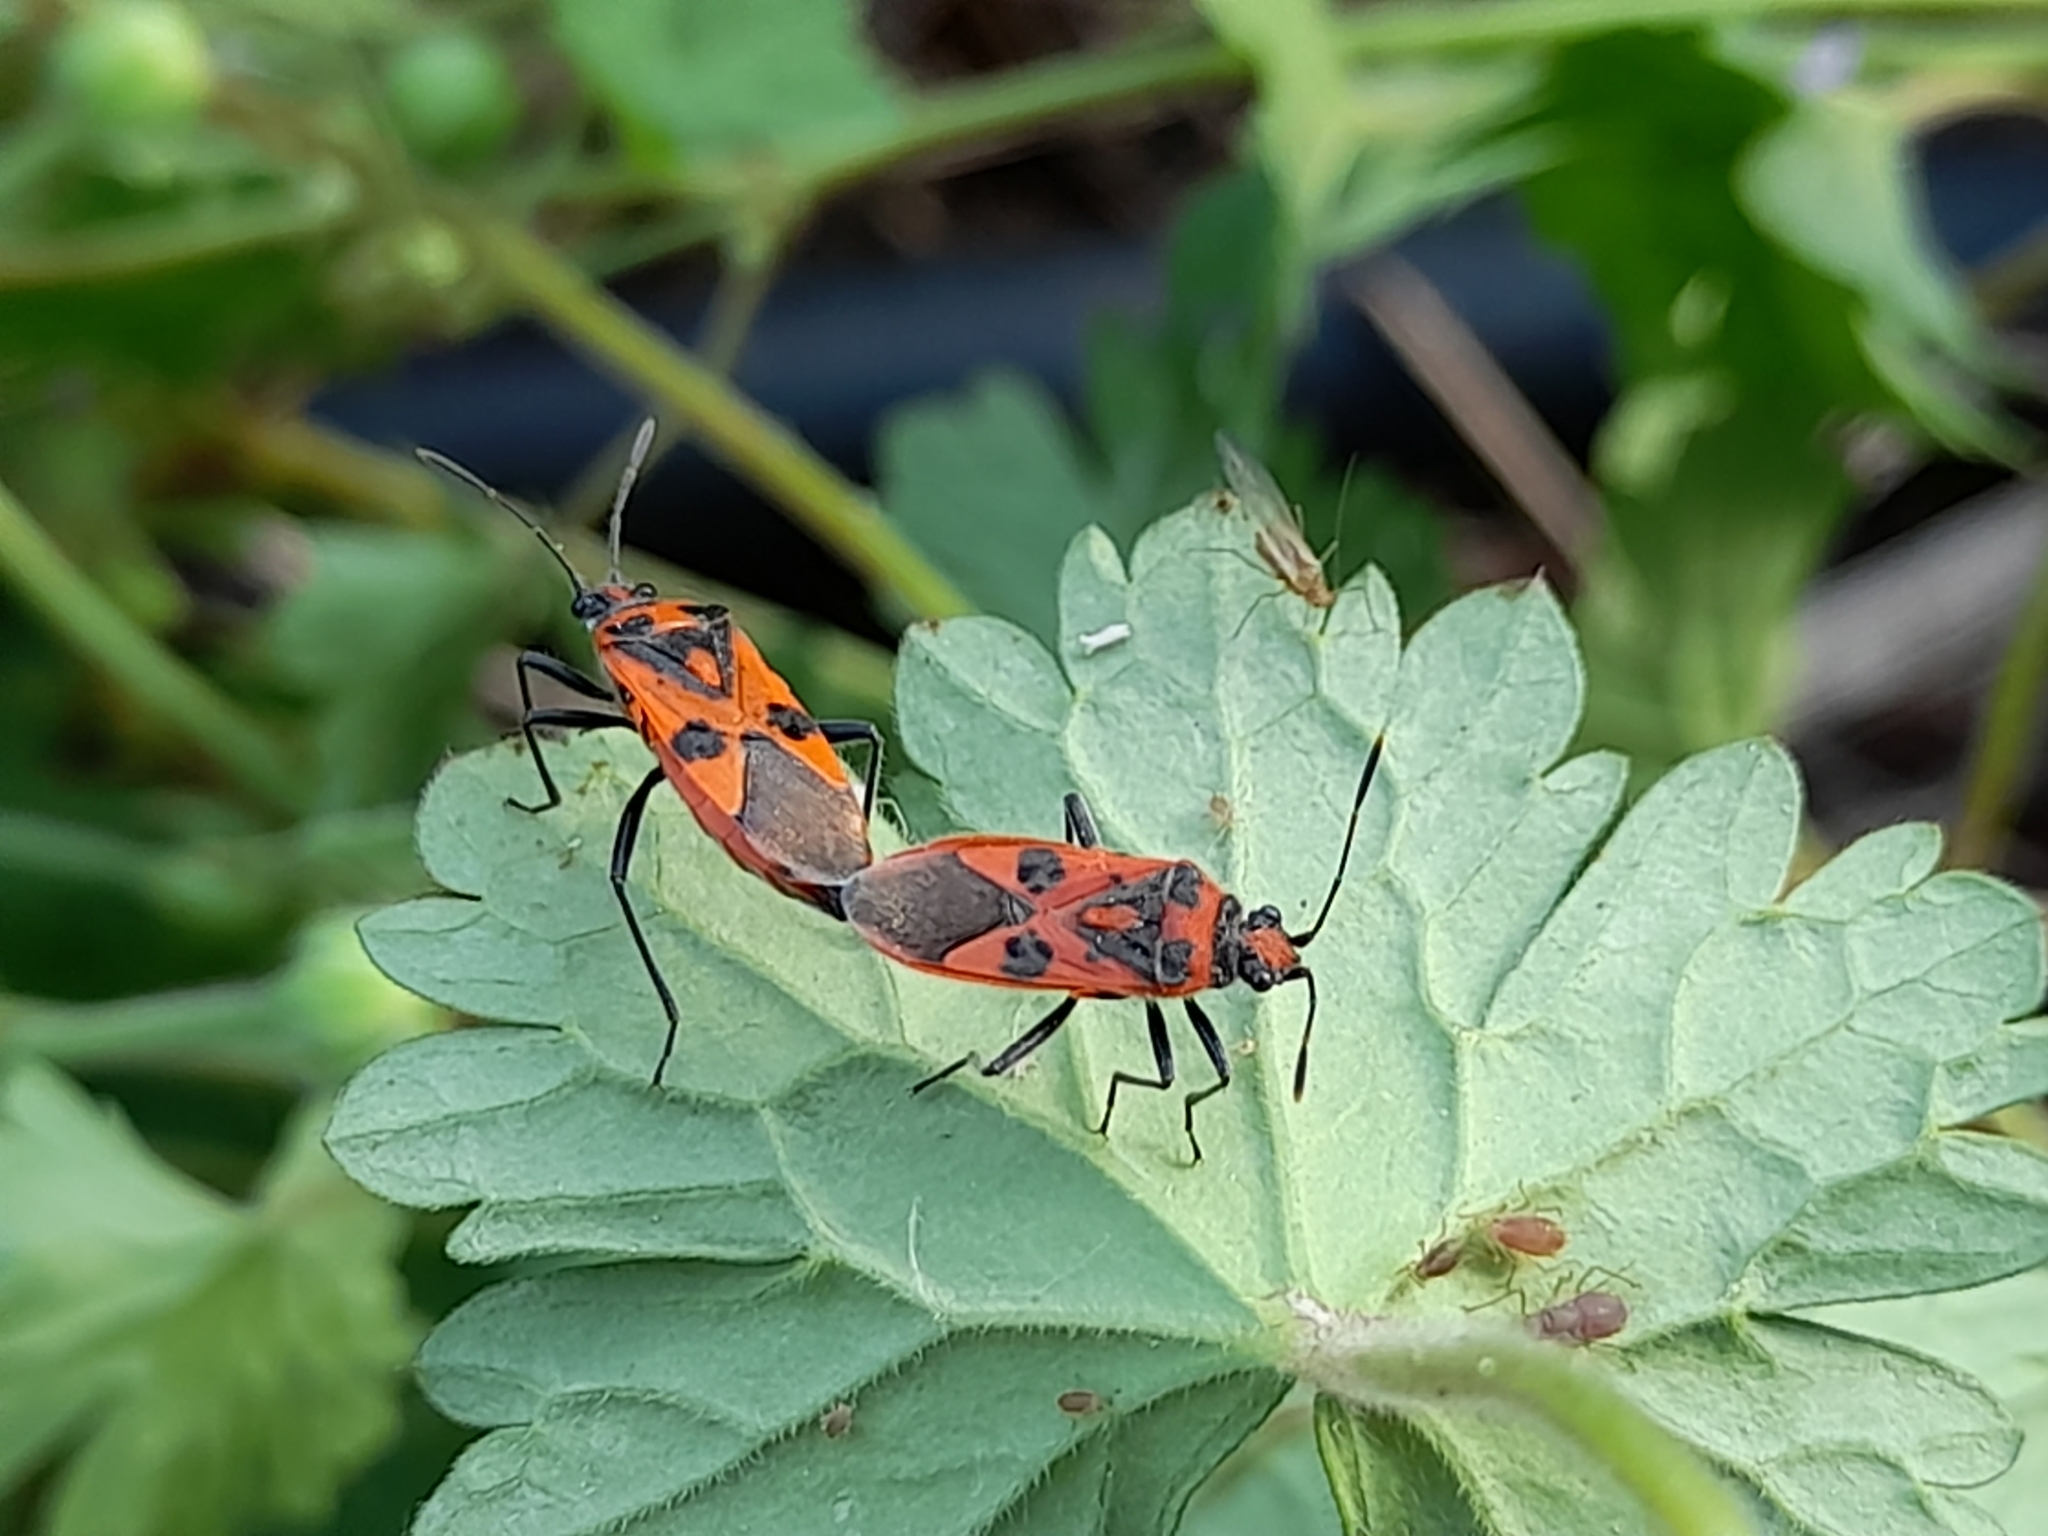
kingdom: Animalia
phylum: Arthropoda
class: Insecta
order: Hemiptera
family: Rhopalidae
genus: Corizus
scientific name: Corizus hyoscyami
